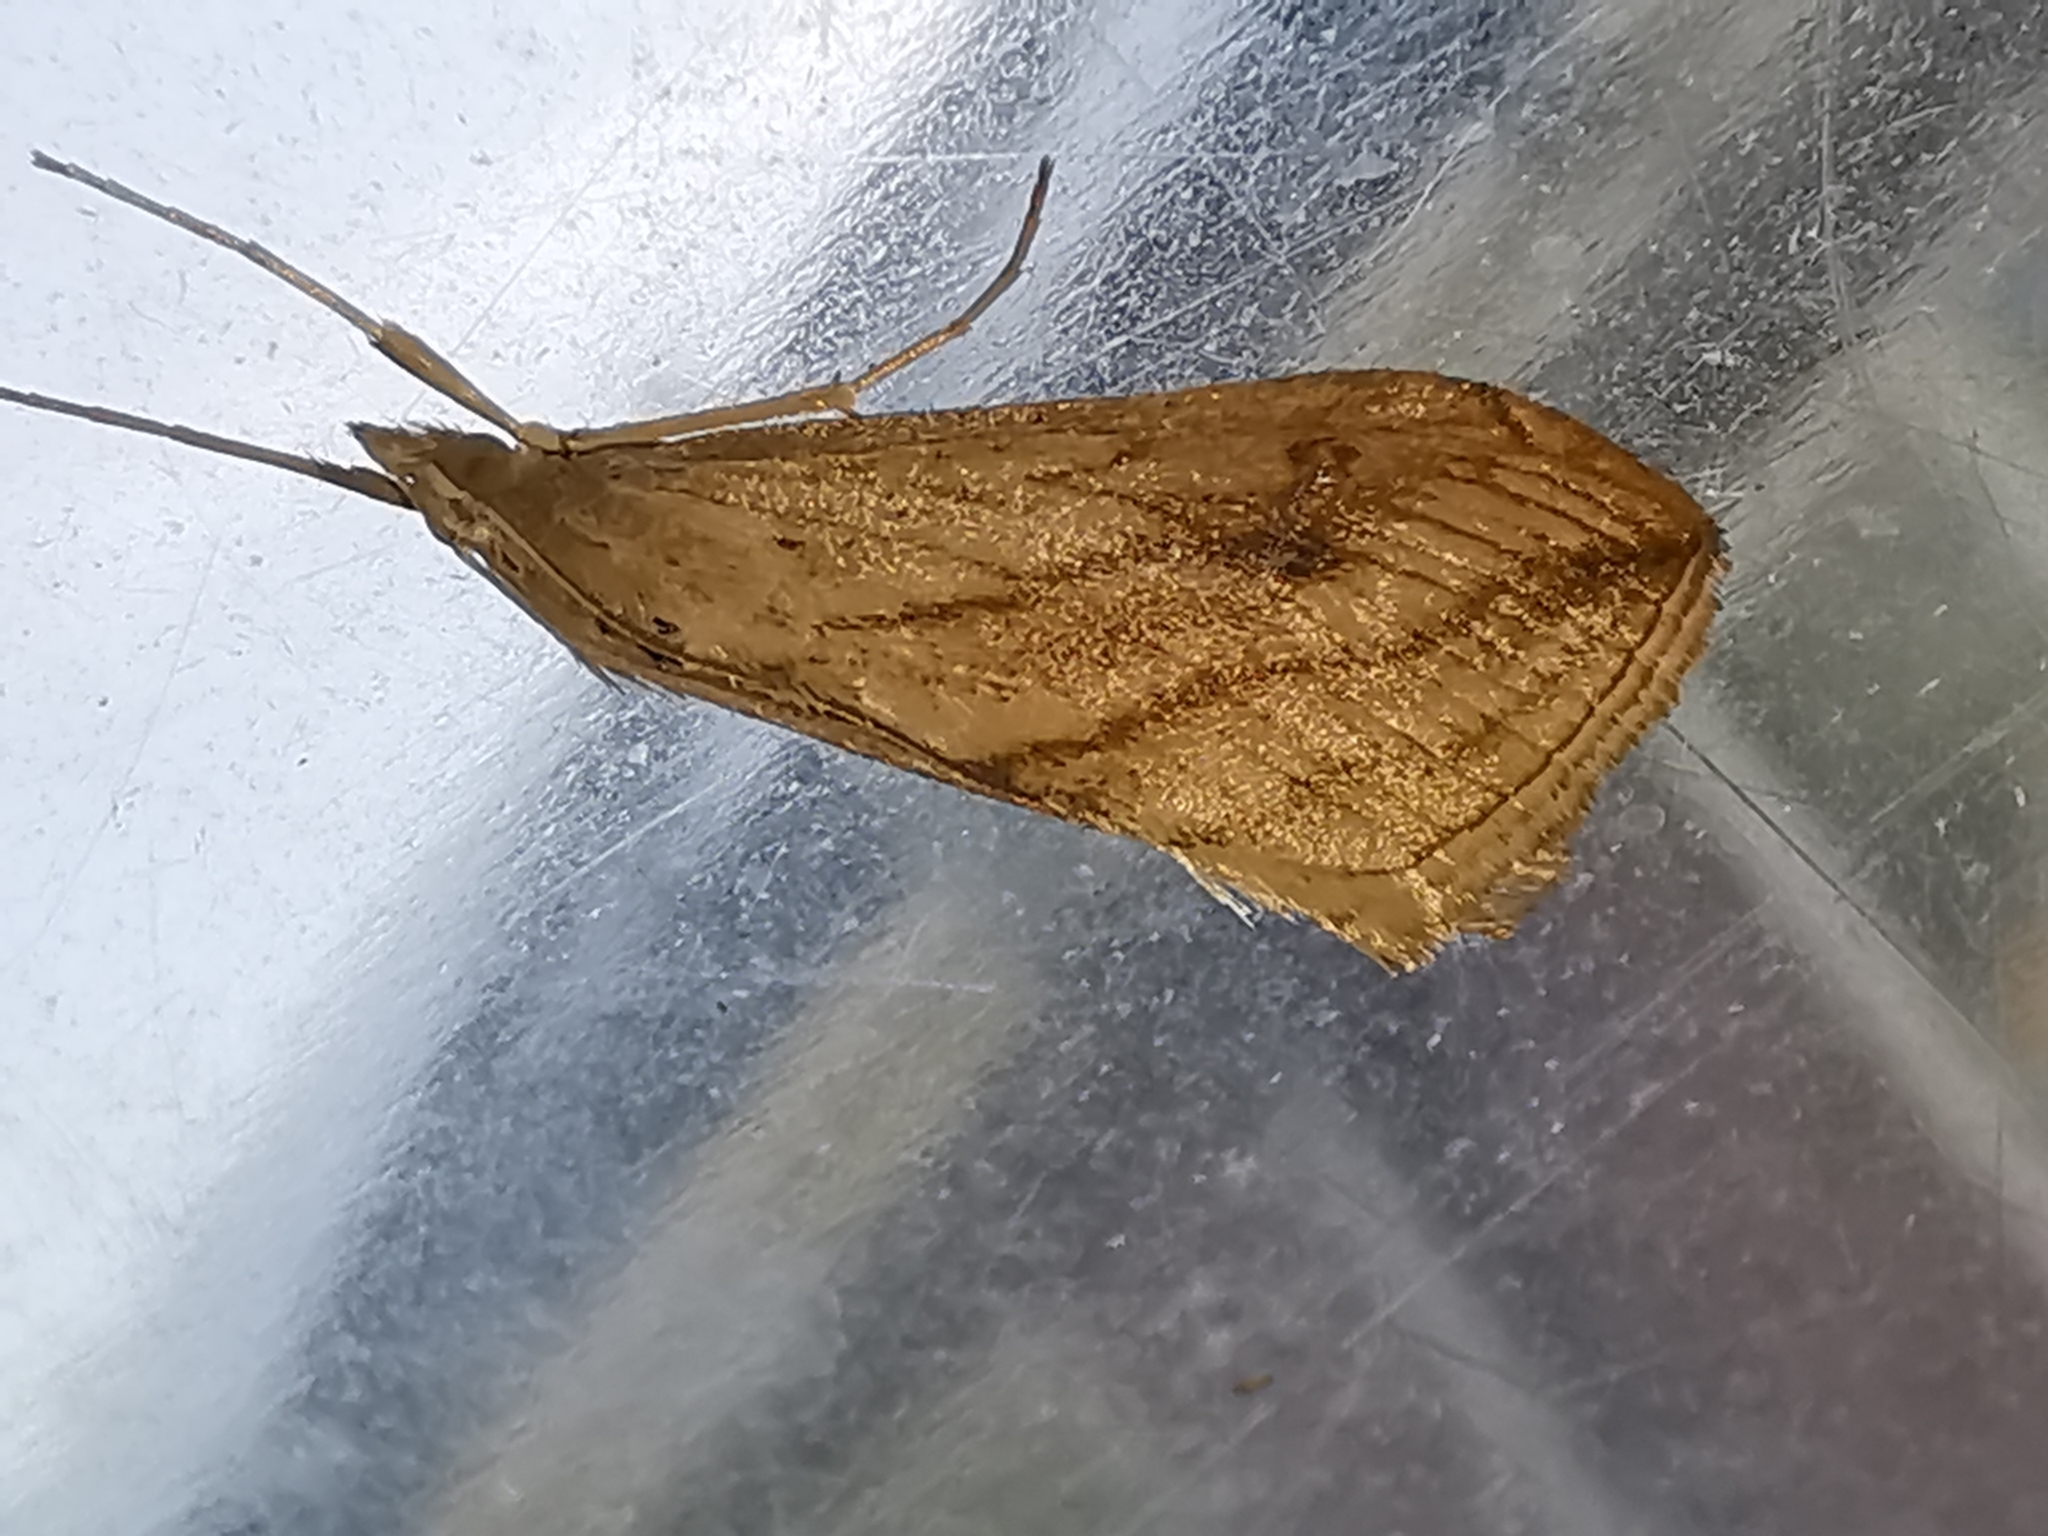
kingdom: Animalia
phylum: Arthropoda
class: Insecta
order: Lepidoptera
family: Crambidae
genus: Evergestis
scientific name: Evergestis forficalis
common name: Garden pebble
